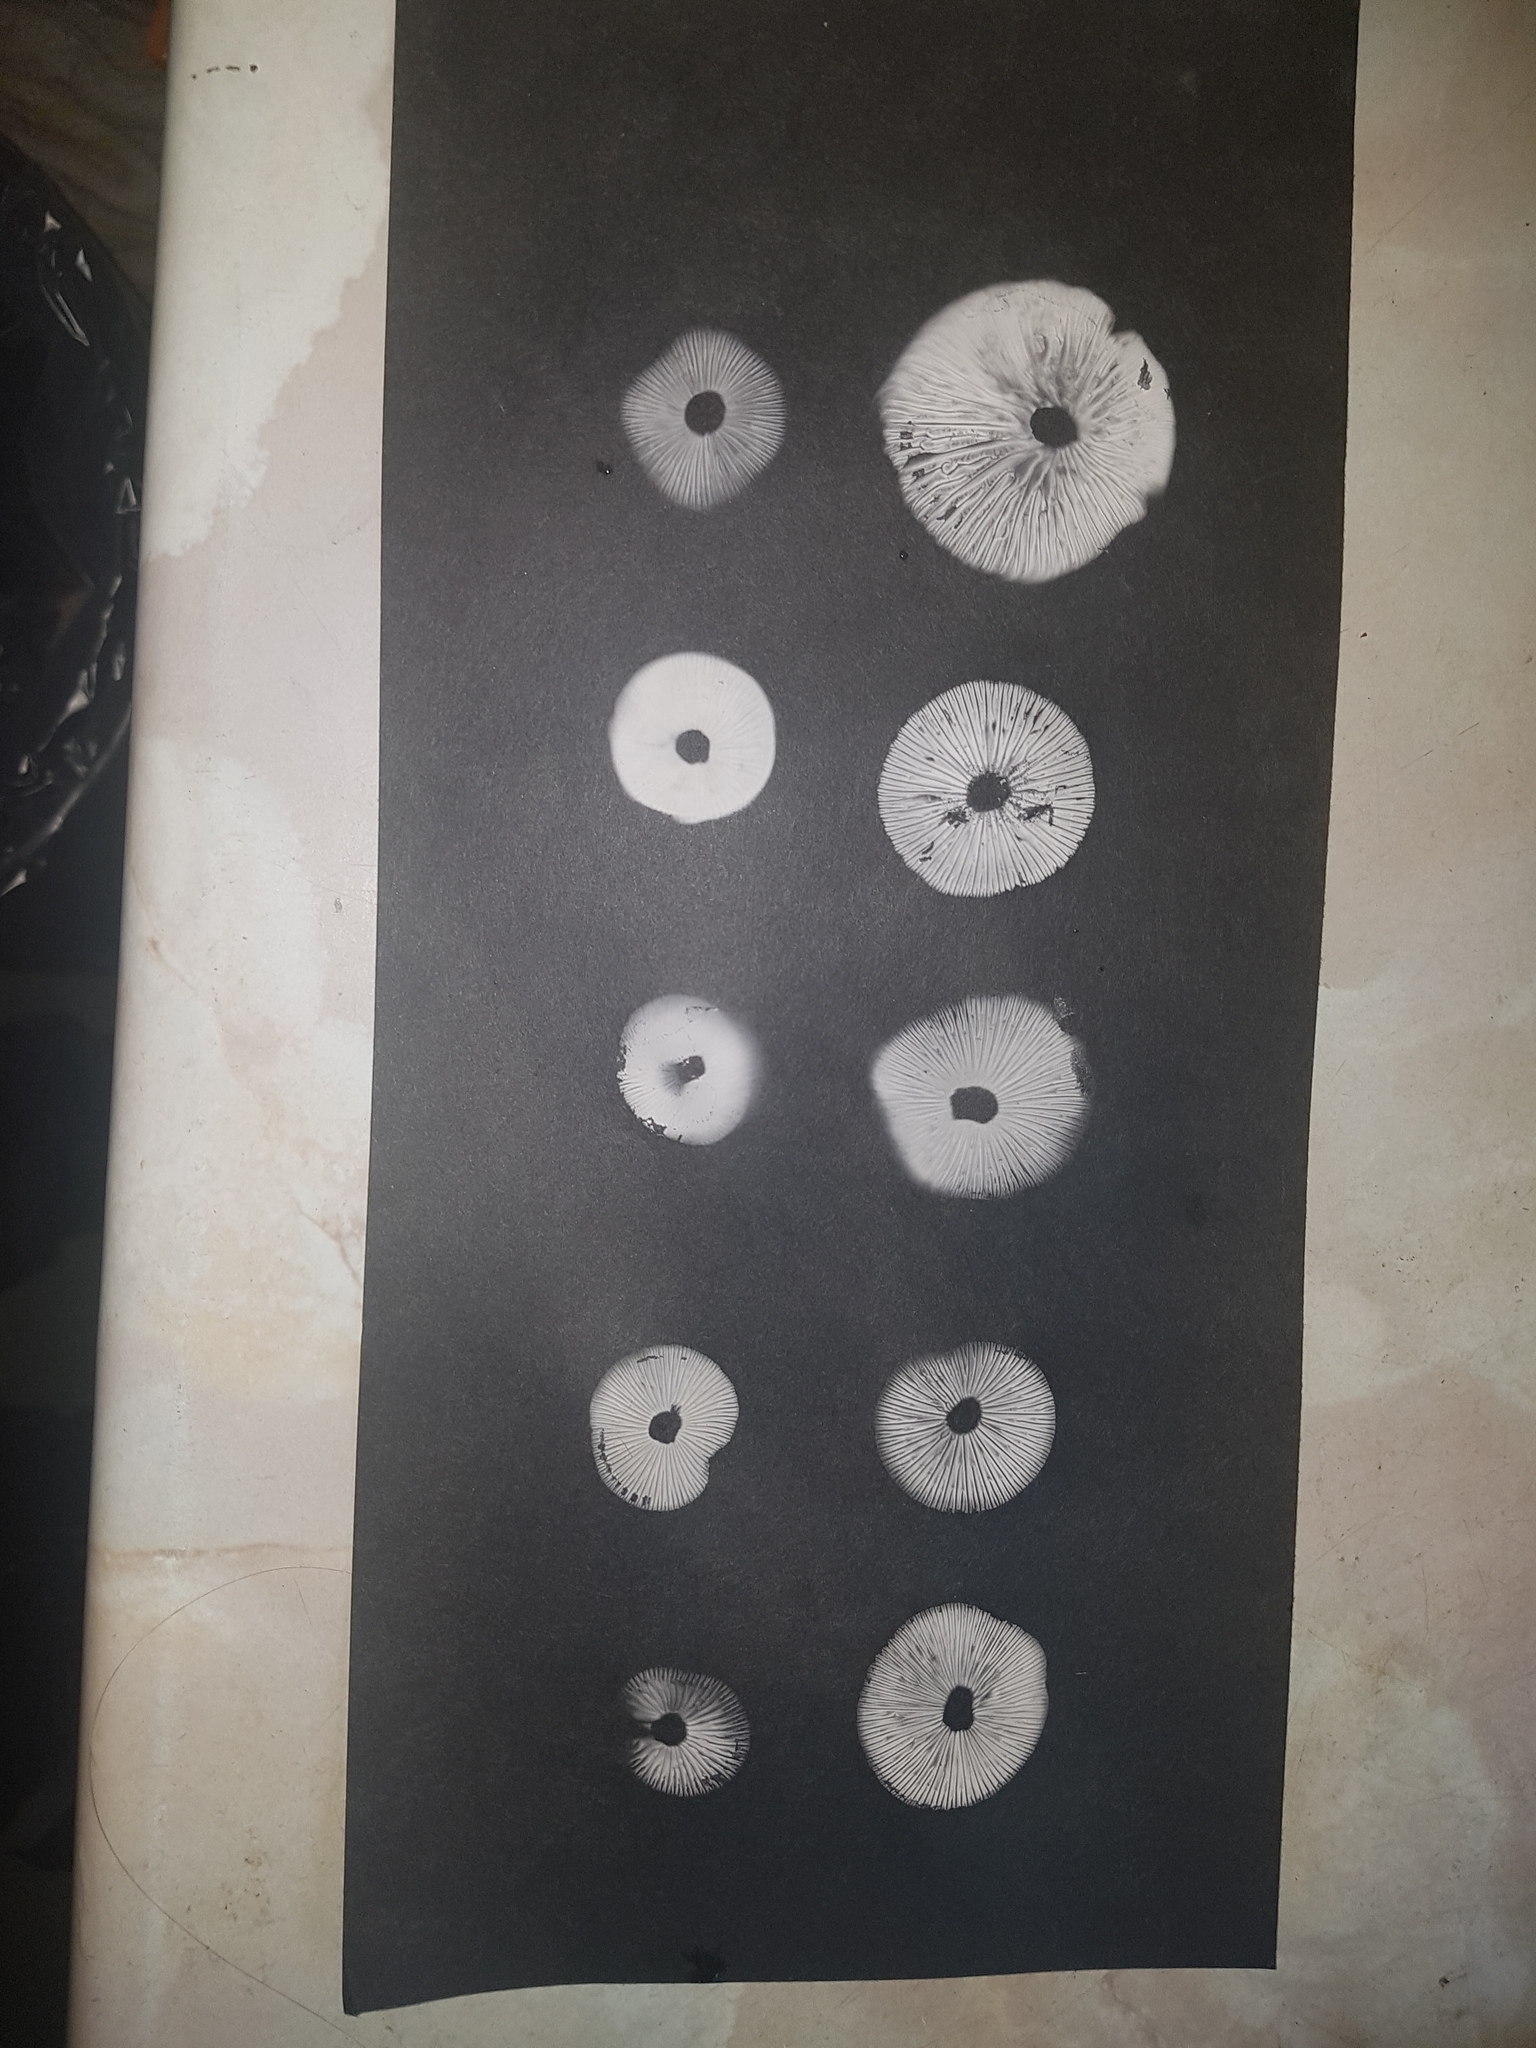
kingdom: Fungi
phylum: Basidiomycota
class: Agaricomycetes
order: Agaricales
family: Marasmiaceae
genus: Marasmius
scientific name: Marasmius oreades
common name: Fairy ring champignon
